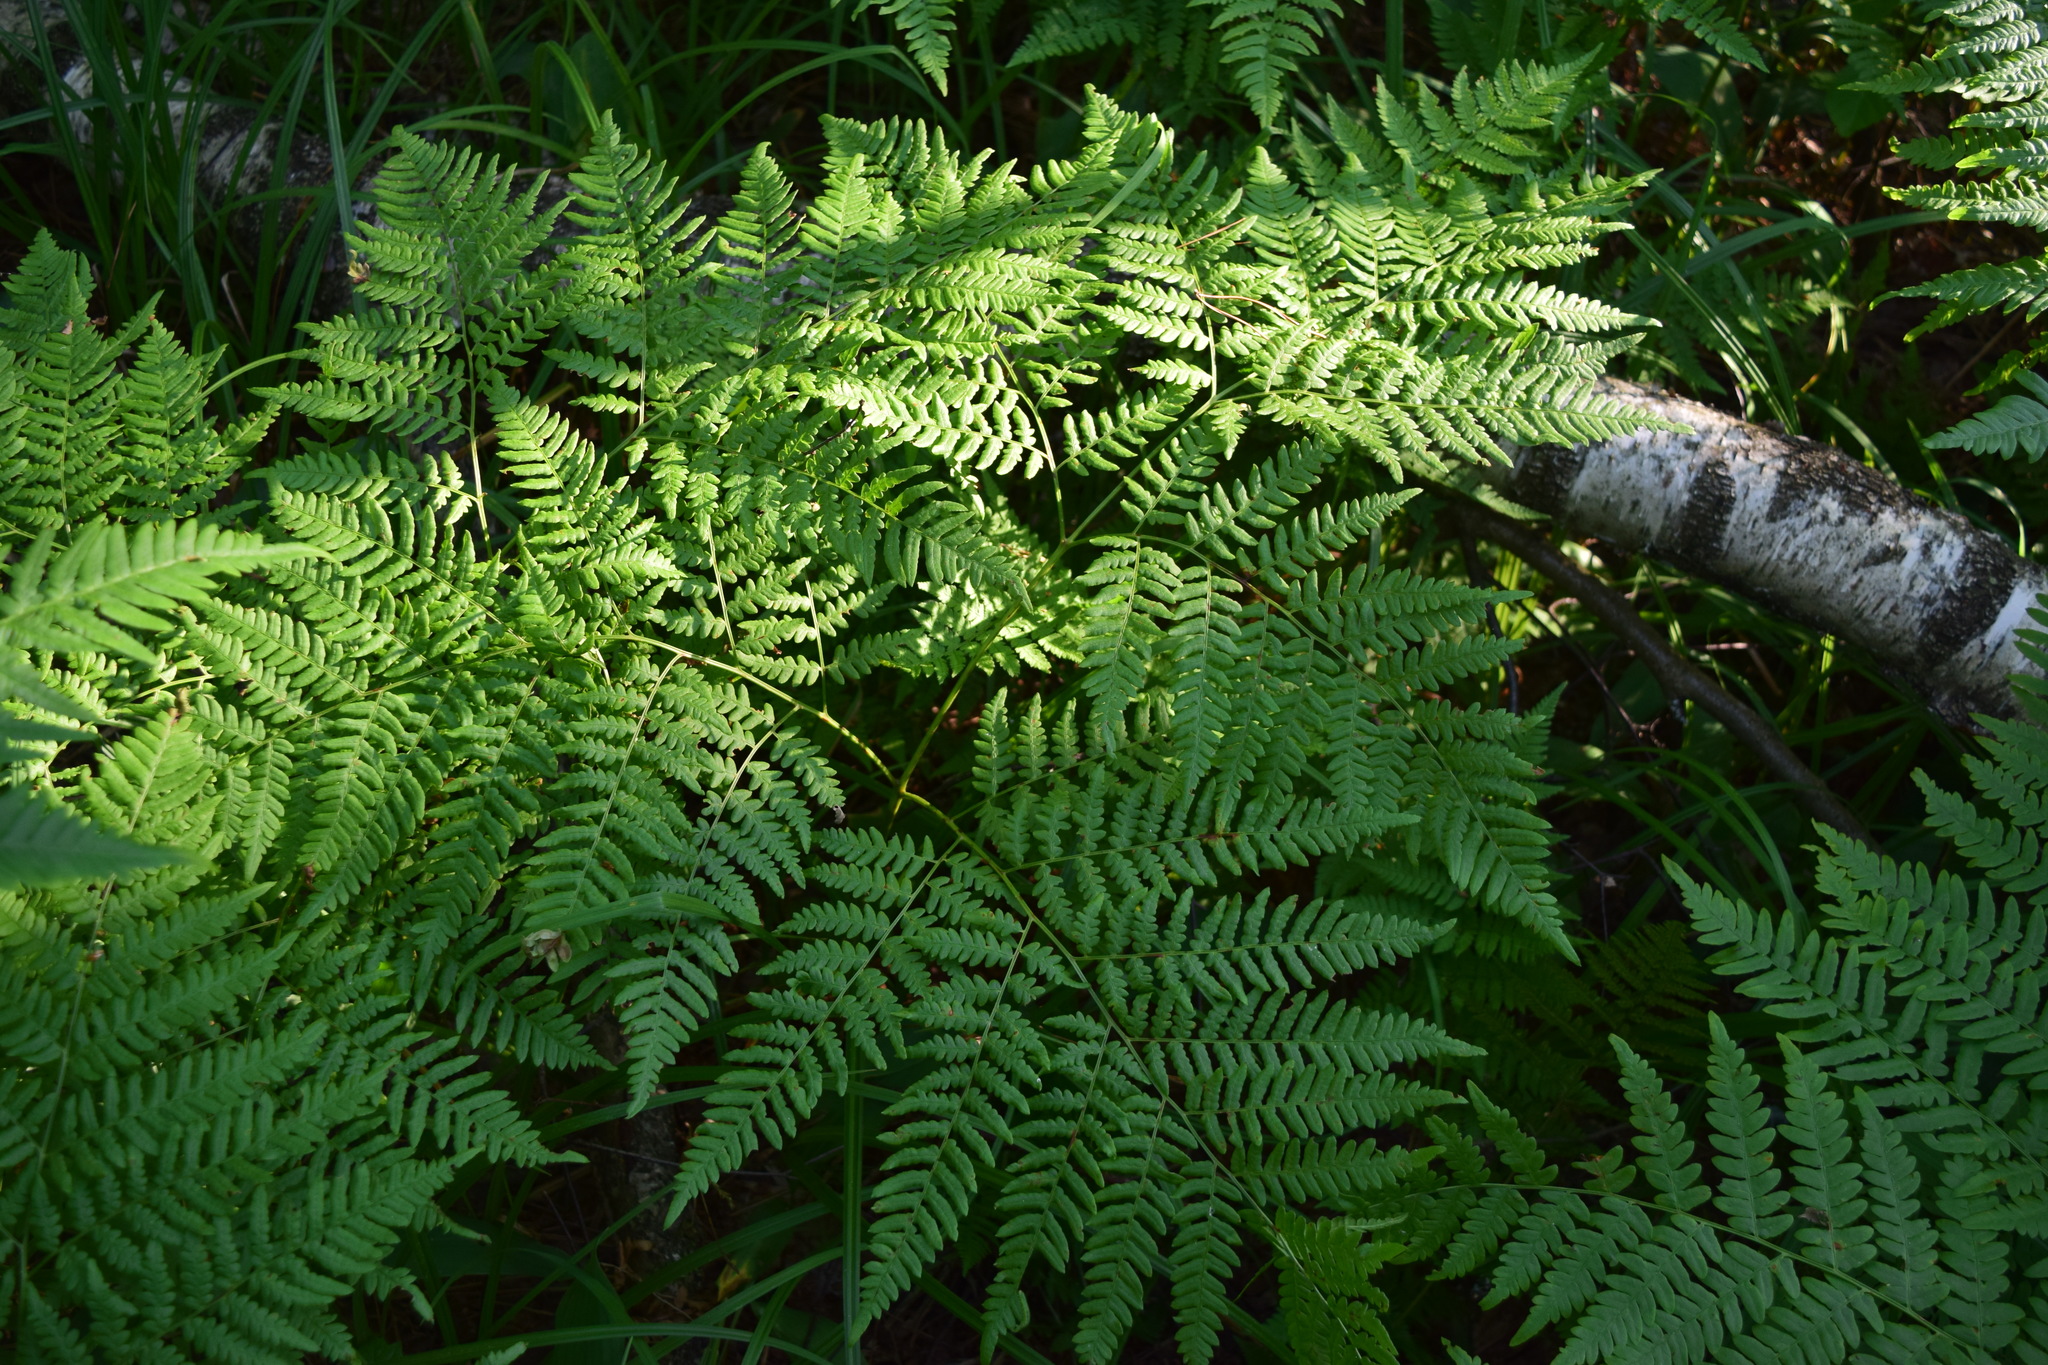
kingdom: Plantae
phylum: Tracheophyta
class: Polypodiopsida
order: Polypodiales
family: Dennstaedtiaceae
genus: Pteridium
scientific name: Pteridium aquilinum
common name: Bracken
